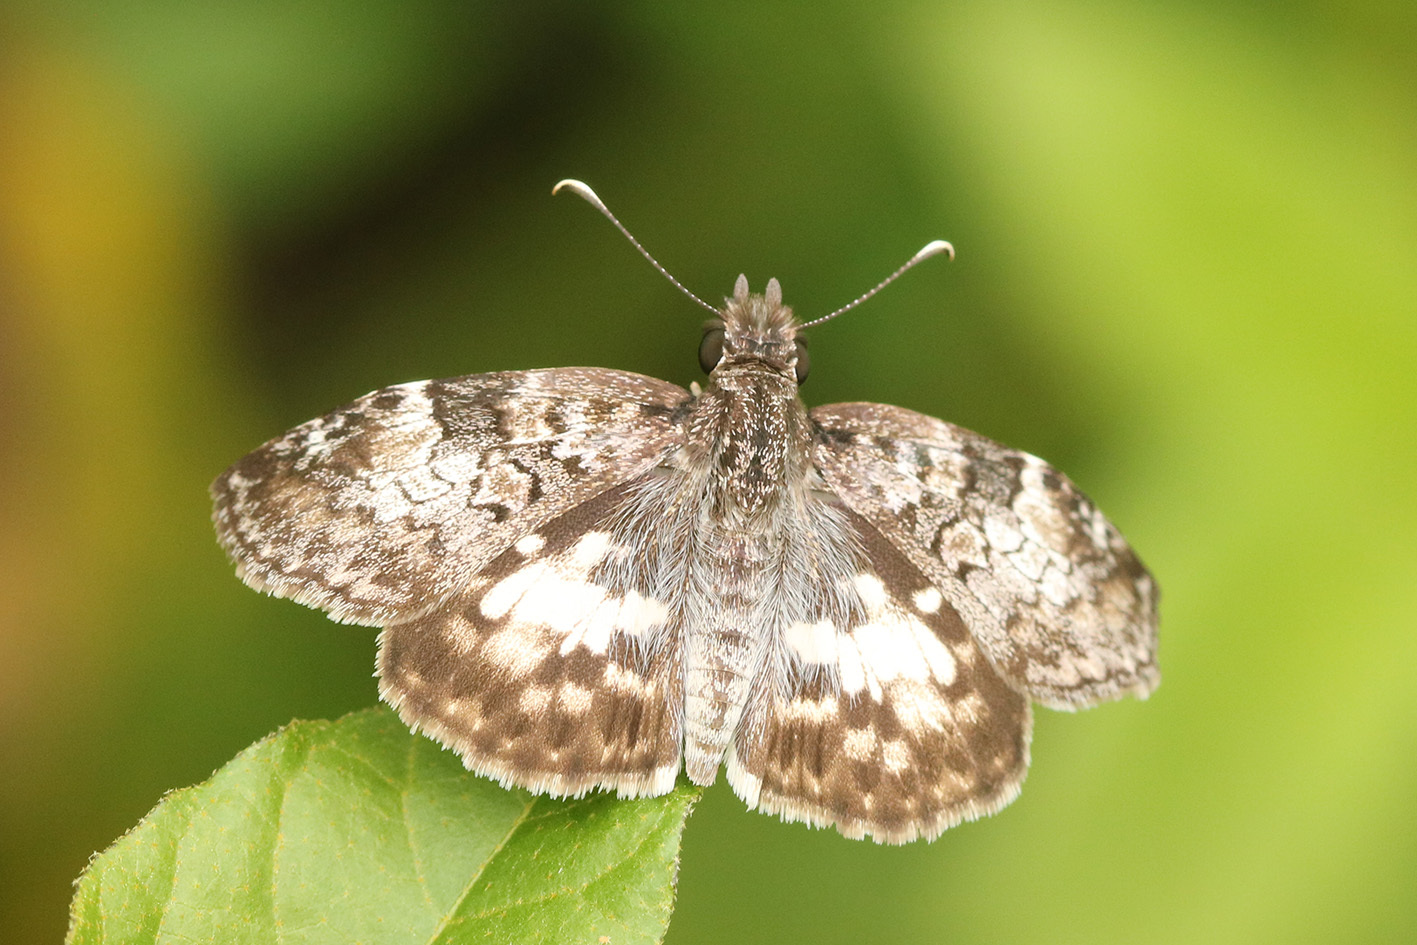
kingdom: Animalia
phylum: Arthropoda
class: Insecta
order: Lepidoptera
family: Hesperiidae
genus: Chiomara
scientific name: Chiomara asychis
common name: White-patterned skipper
